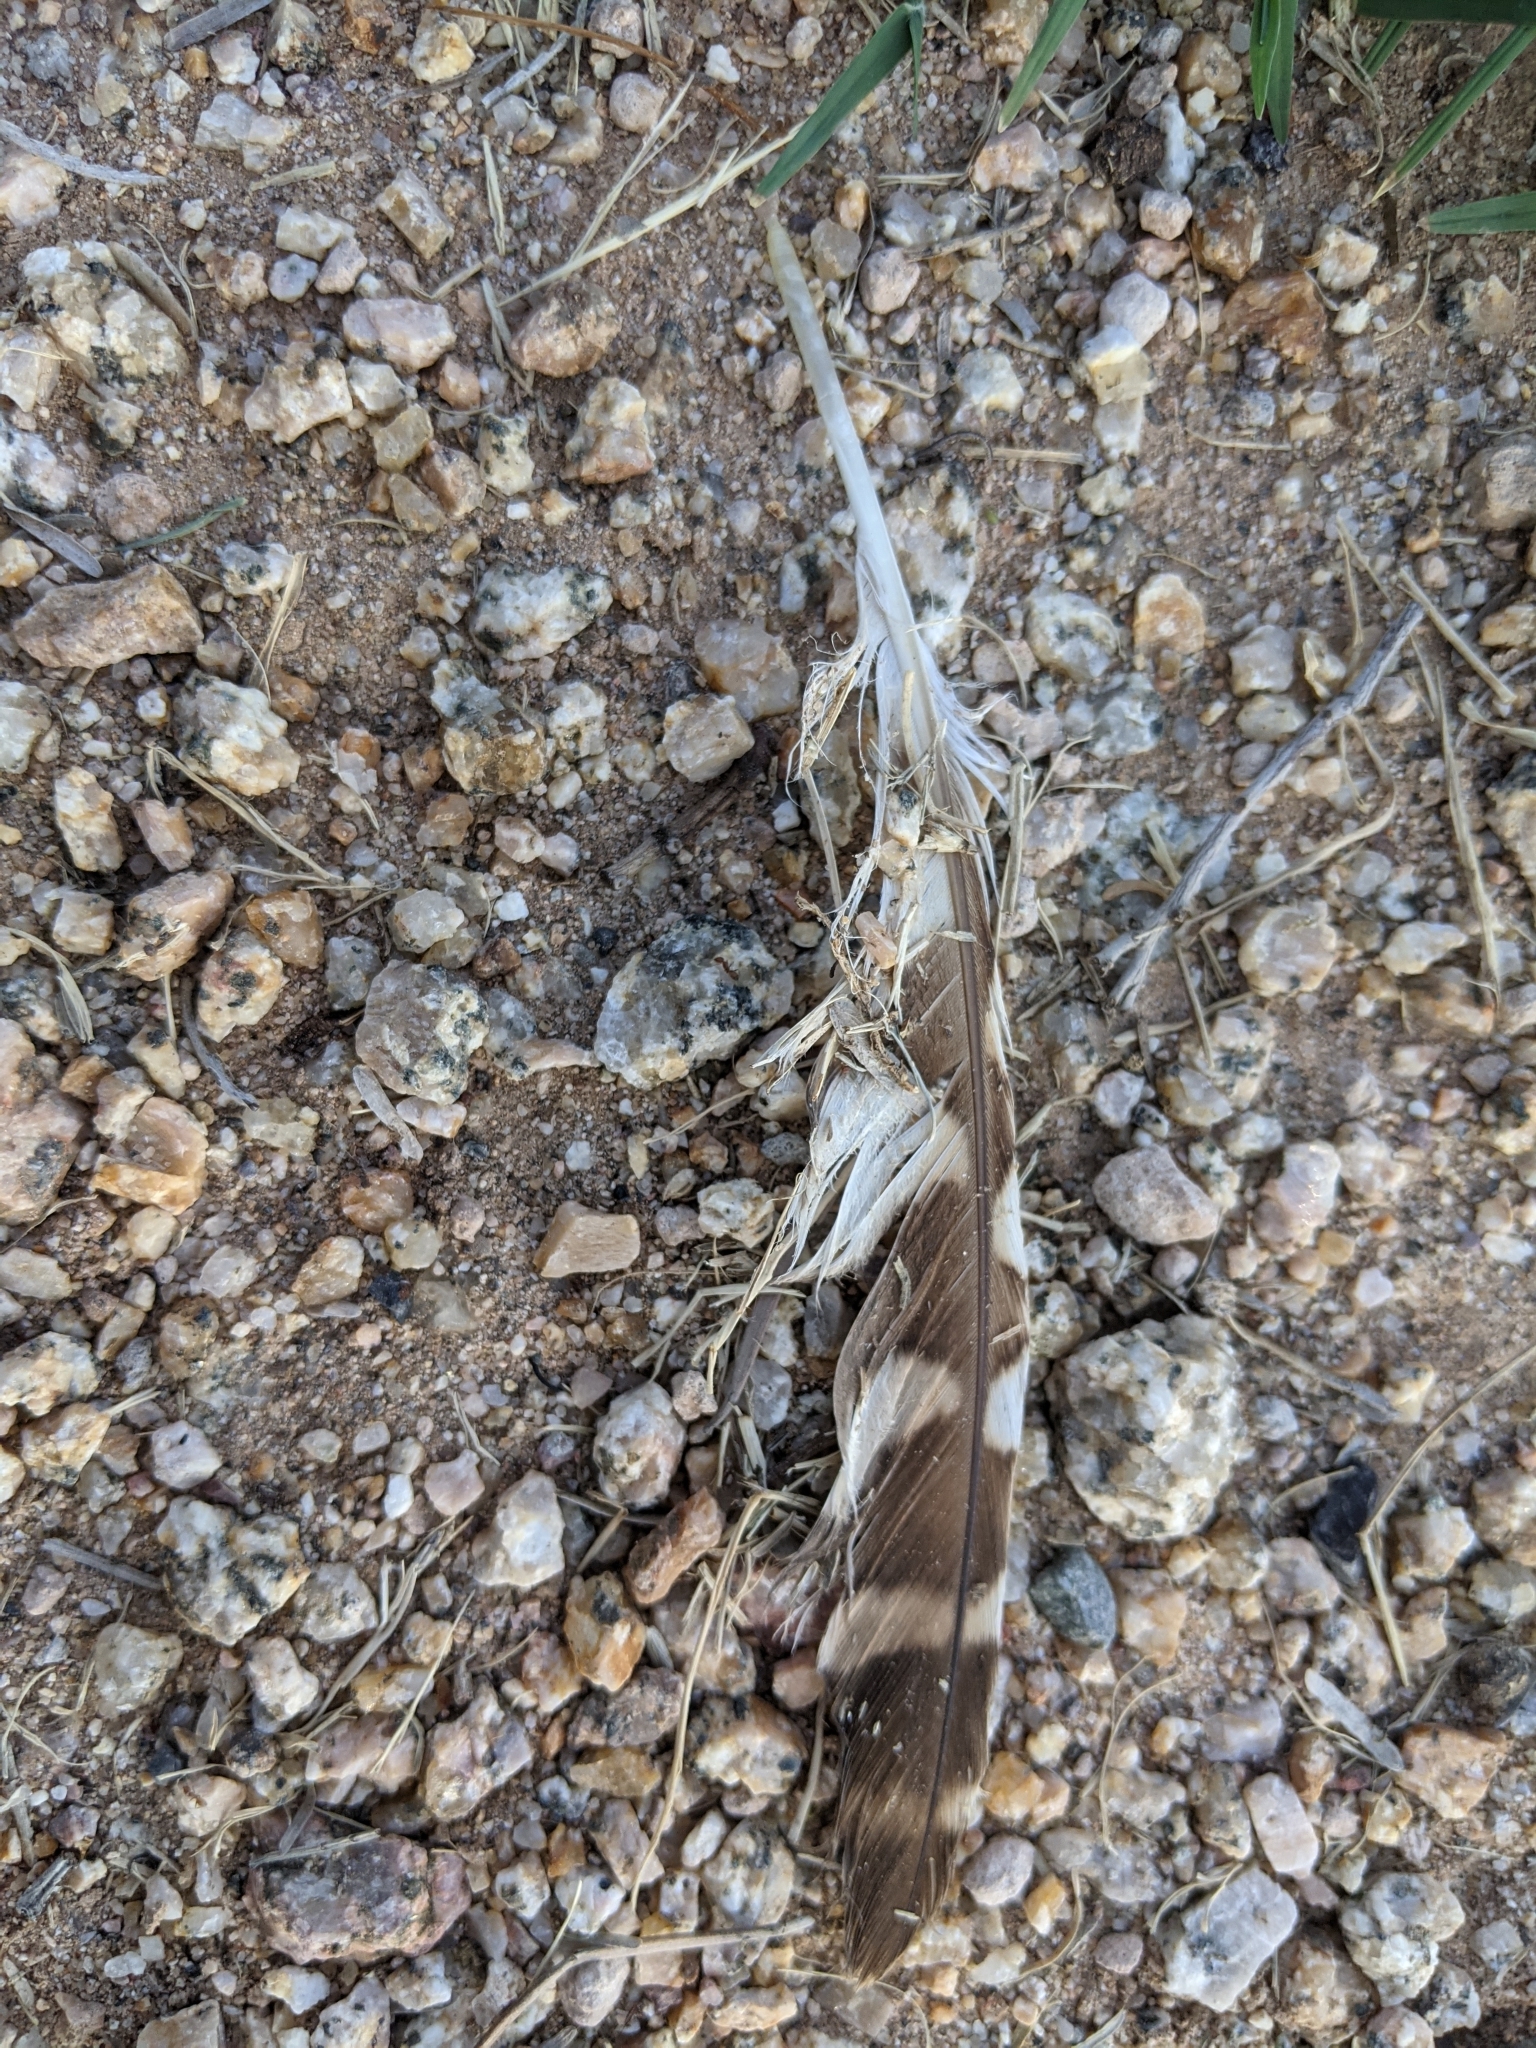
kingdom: Animalia
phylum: Chordata
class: Aves
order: Strigiformes
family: Strigidae
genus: Athene
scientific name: Athene cunicularia
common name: Burrowing owl
